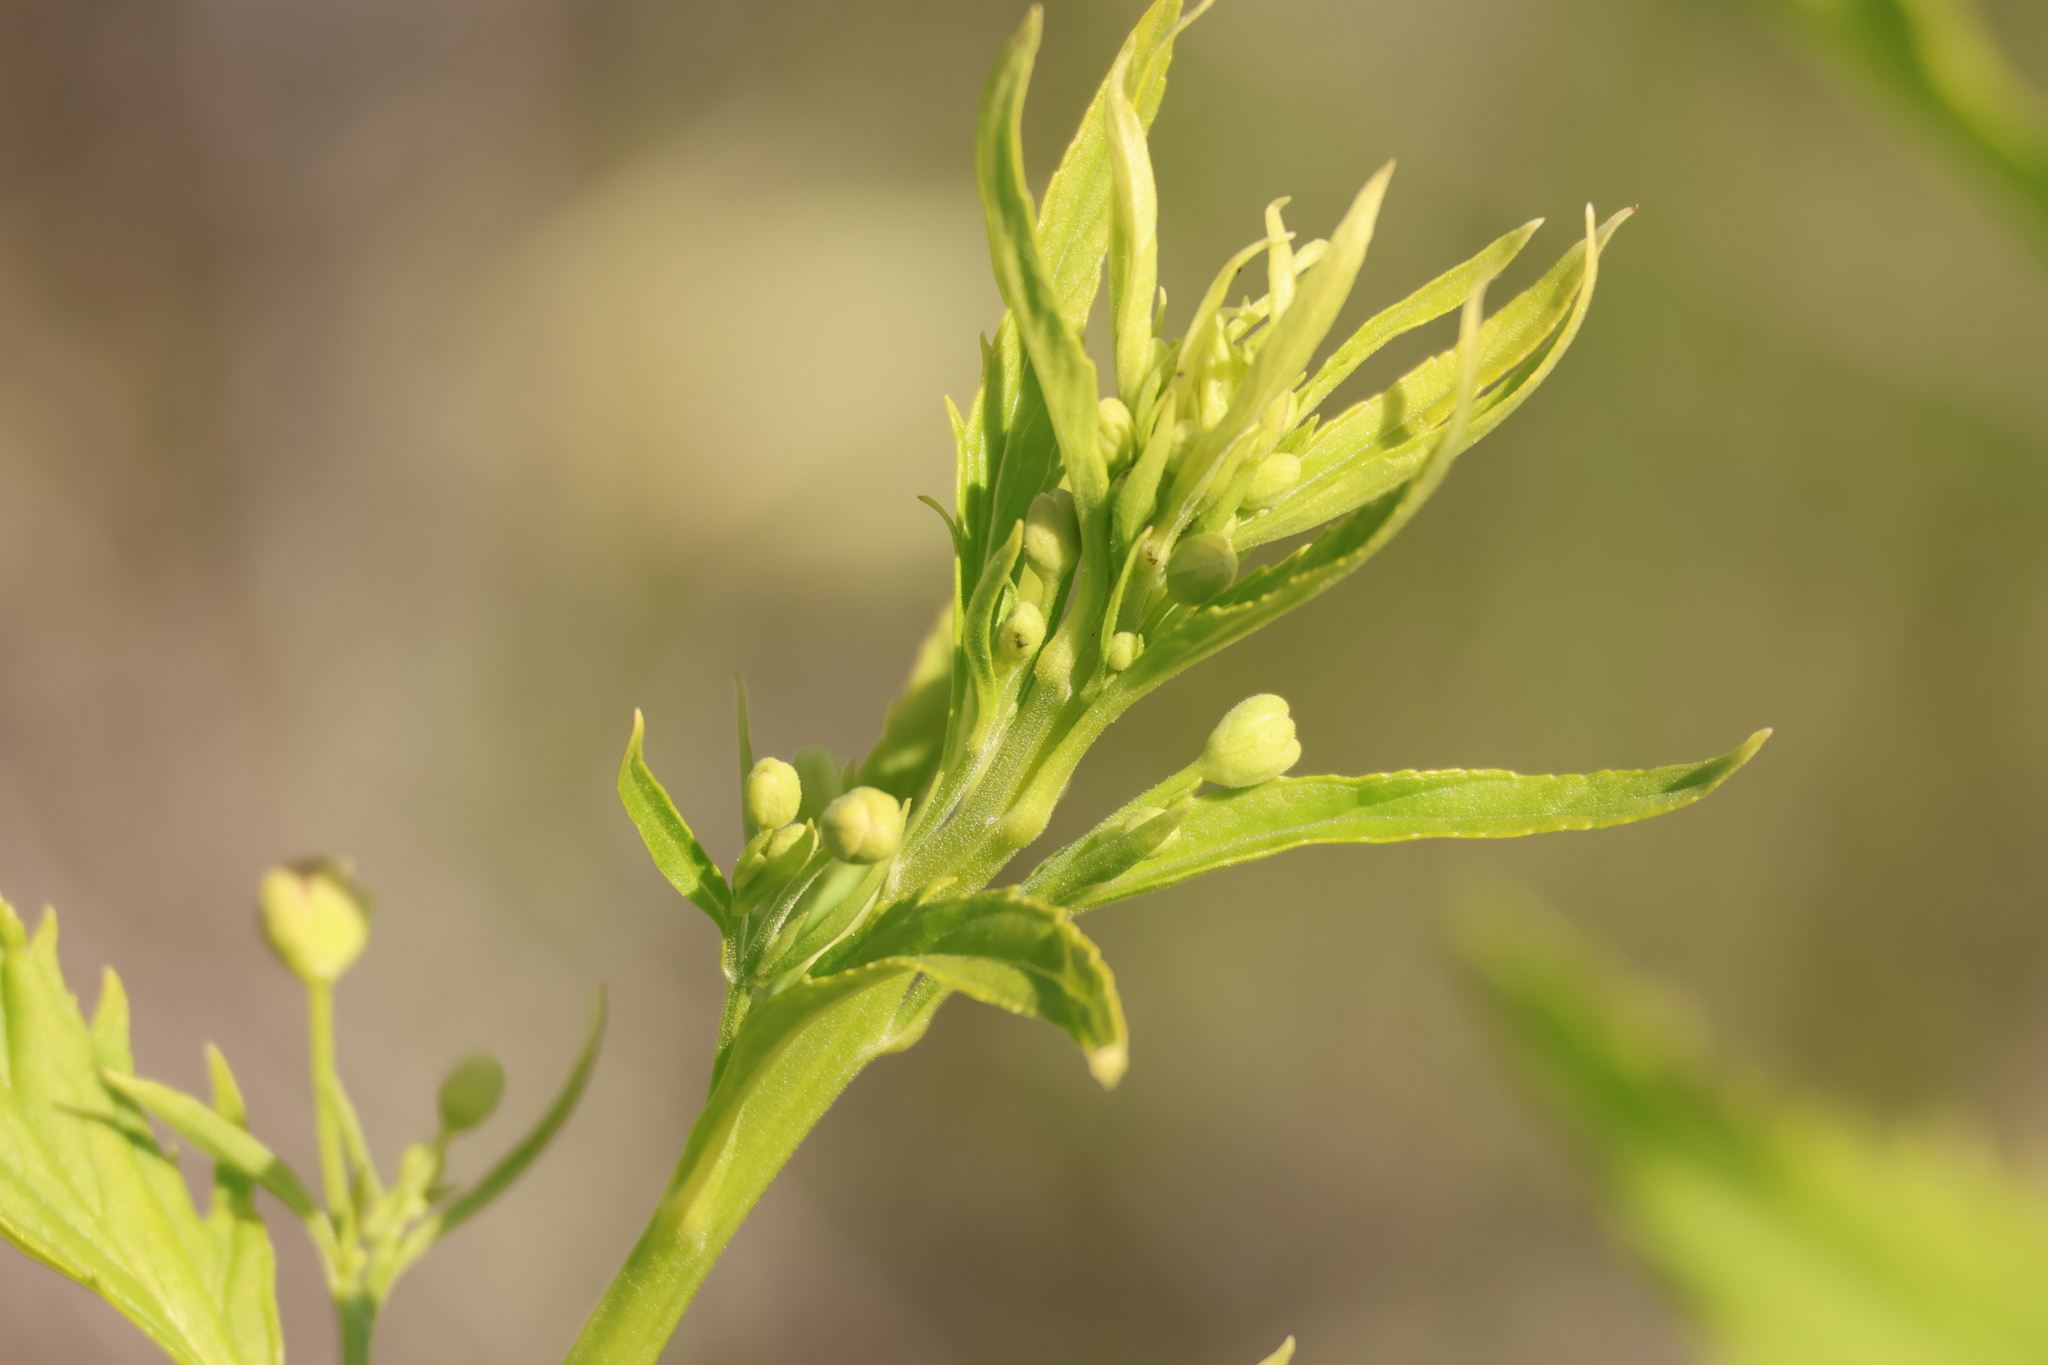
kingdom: Plantae
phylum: Tracheophyta
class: Magnoliopsida
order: Lamiales
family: Scrophulariaceae
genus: Scrophularia
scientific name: Scrophularia californica
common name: California figwort
